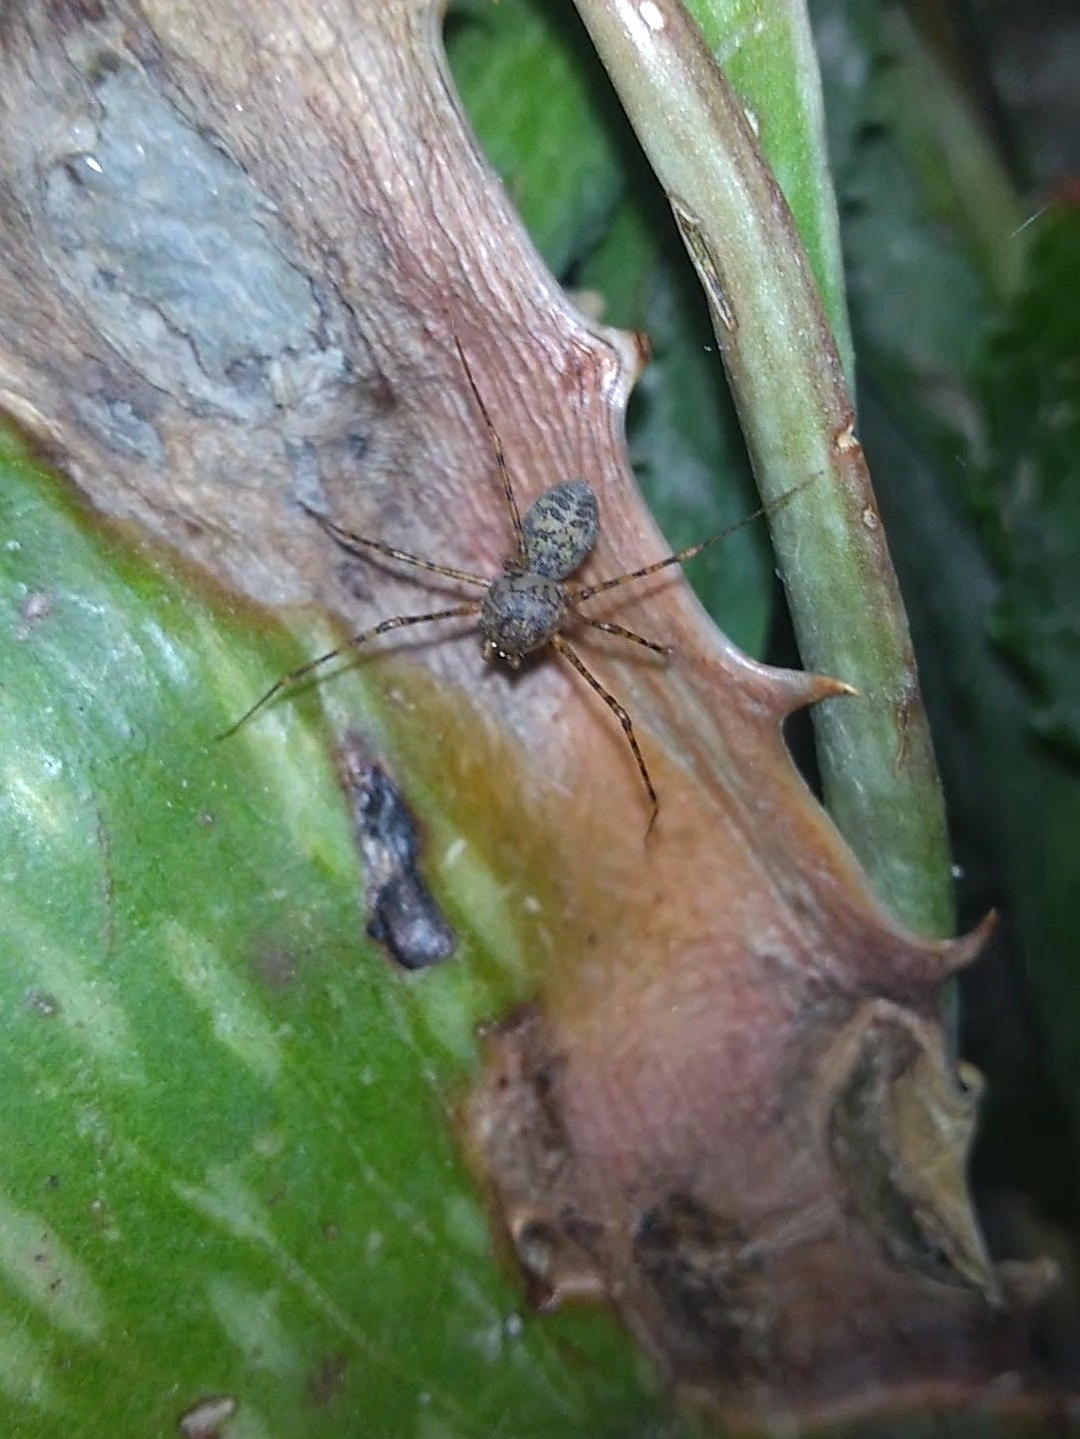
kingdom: Animalia
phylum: Arthropoda
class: Arachnida
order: Araneae
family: Scytodidae
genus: Scytodes
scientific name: Scytodes longipes
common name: Spitting spiders
